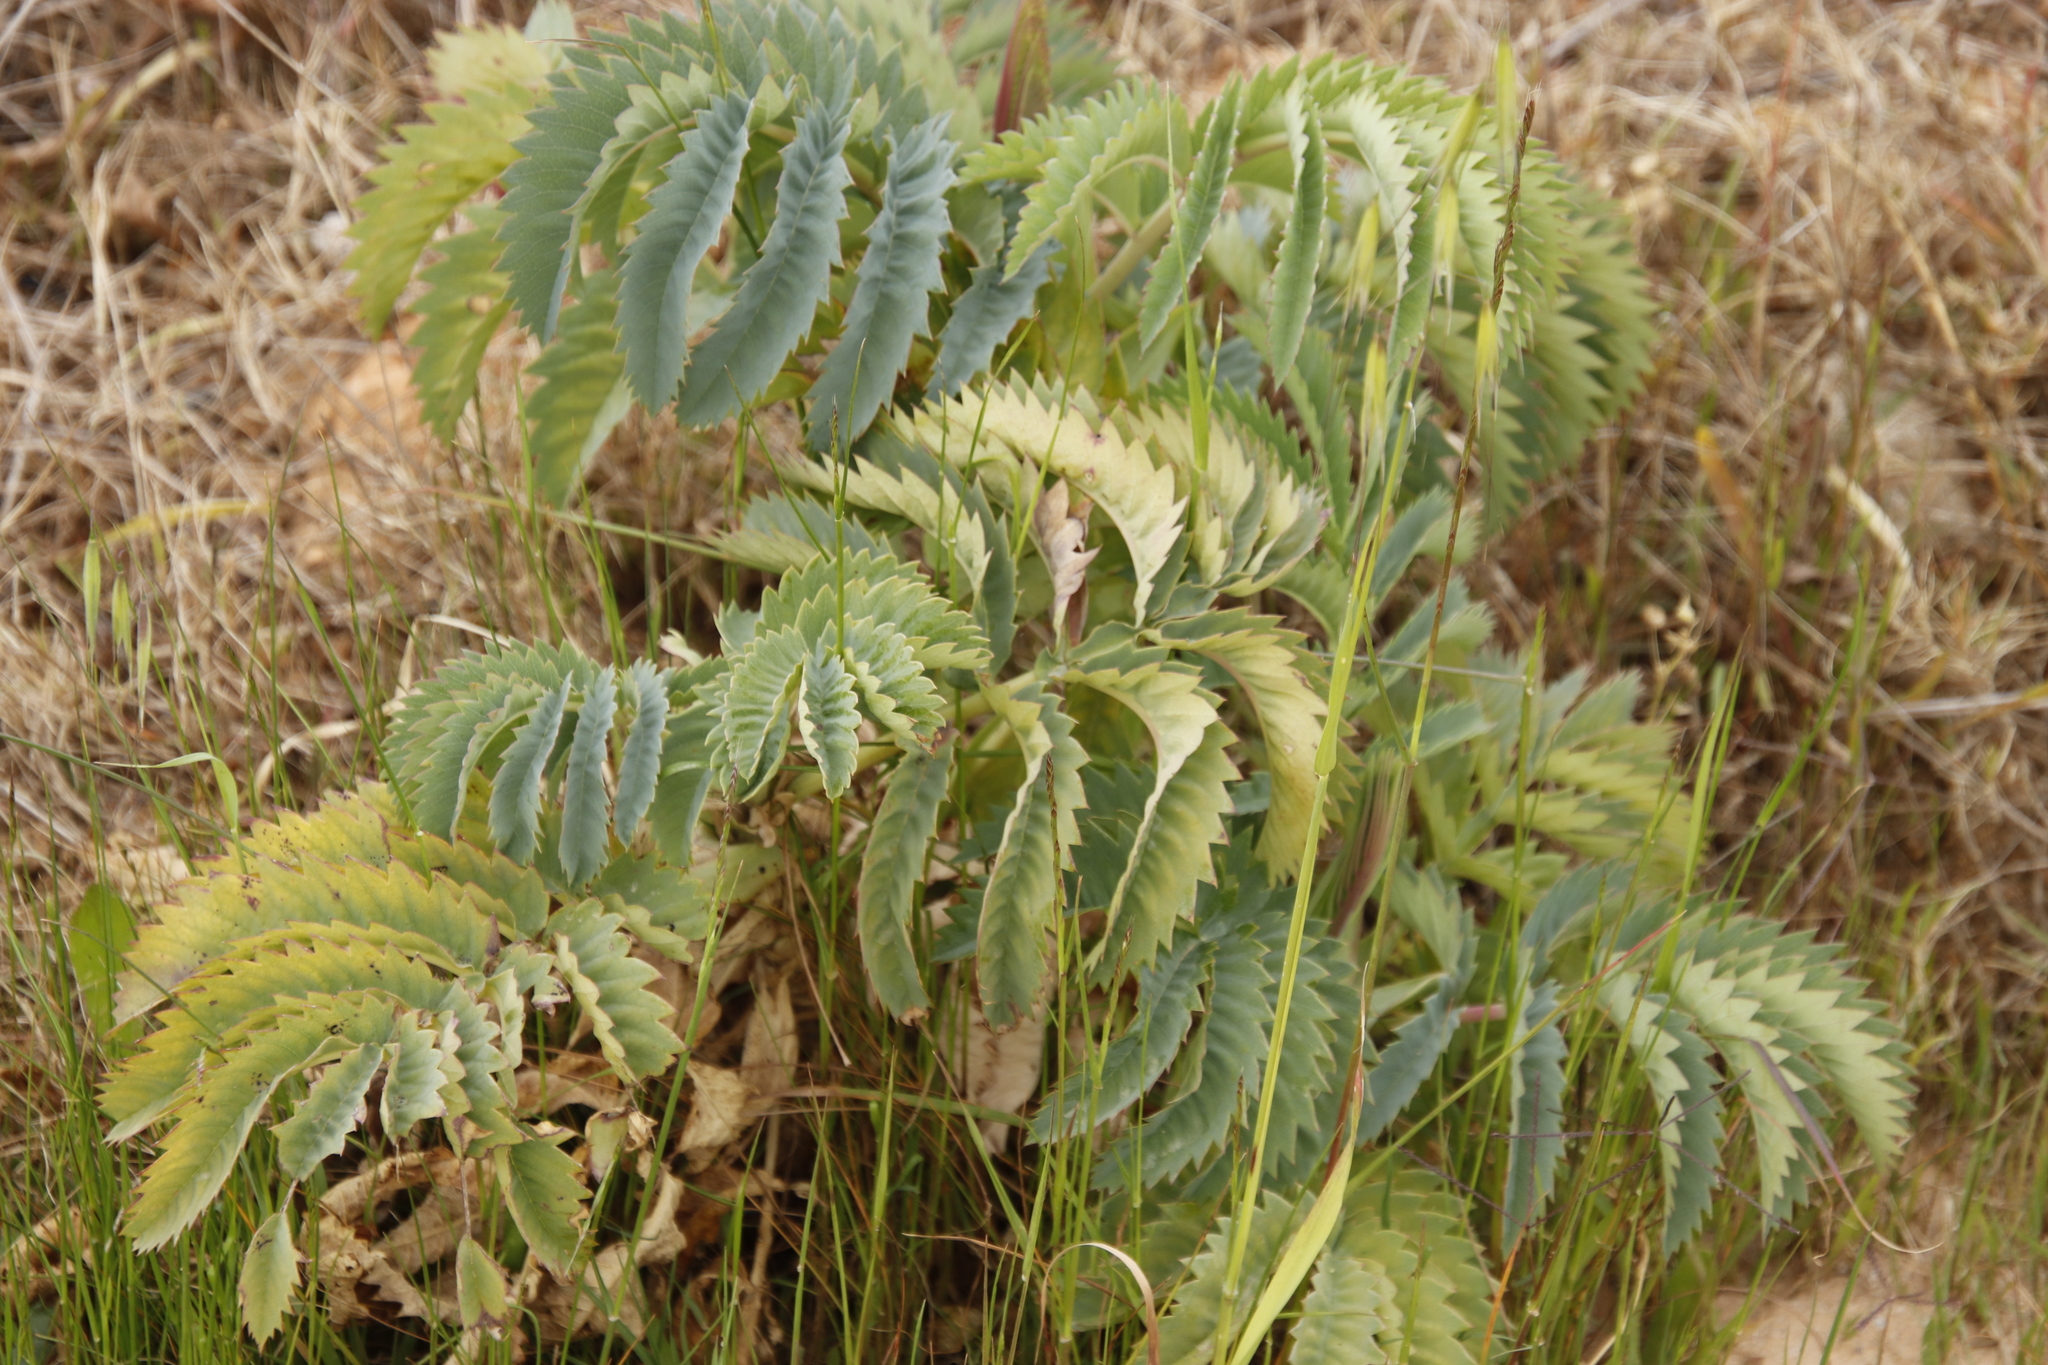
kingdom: Plantae
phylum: Tracheophyta
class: Magnoliopsida
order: Geraniales
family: Melianthaceae
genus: Melianthus
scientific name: Melianthus major
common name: Honey-flower
